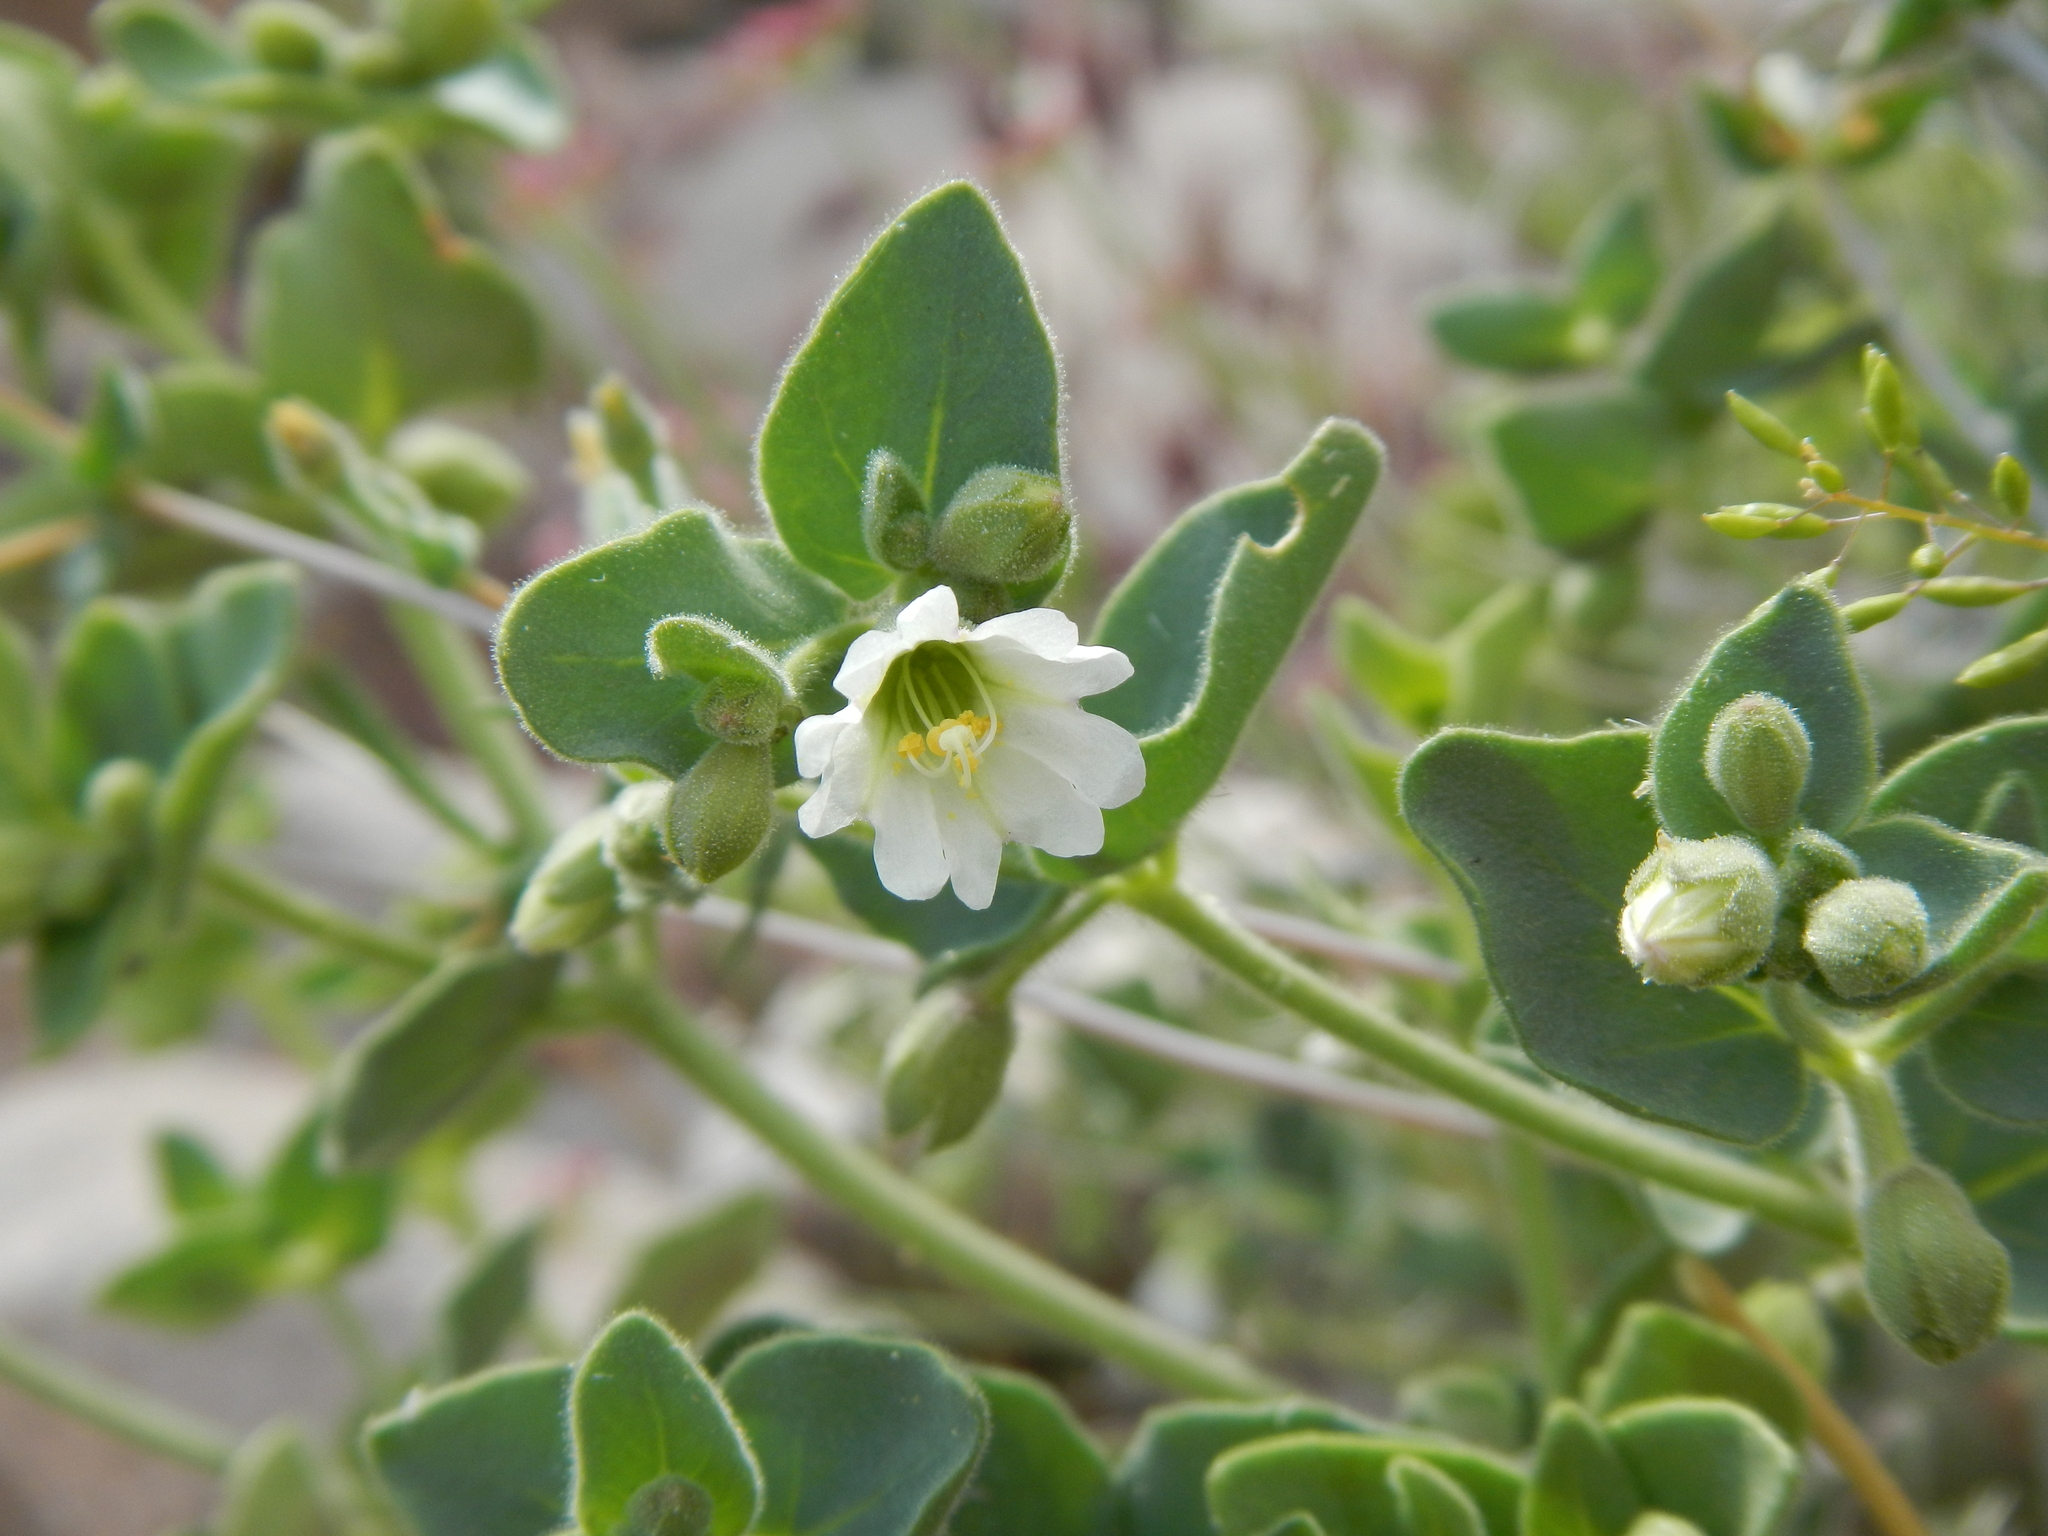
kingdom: Plantae
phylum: Tracheophyta
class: Magnoliopsida
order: Caryophyllales
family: Nyctaginaceae
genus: Mirabilis
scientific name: Mirabilis laevis
